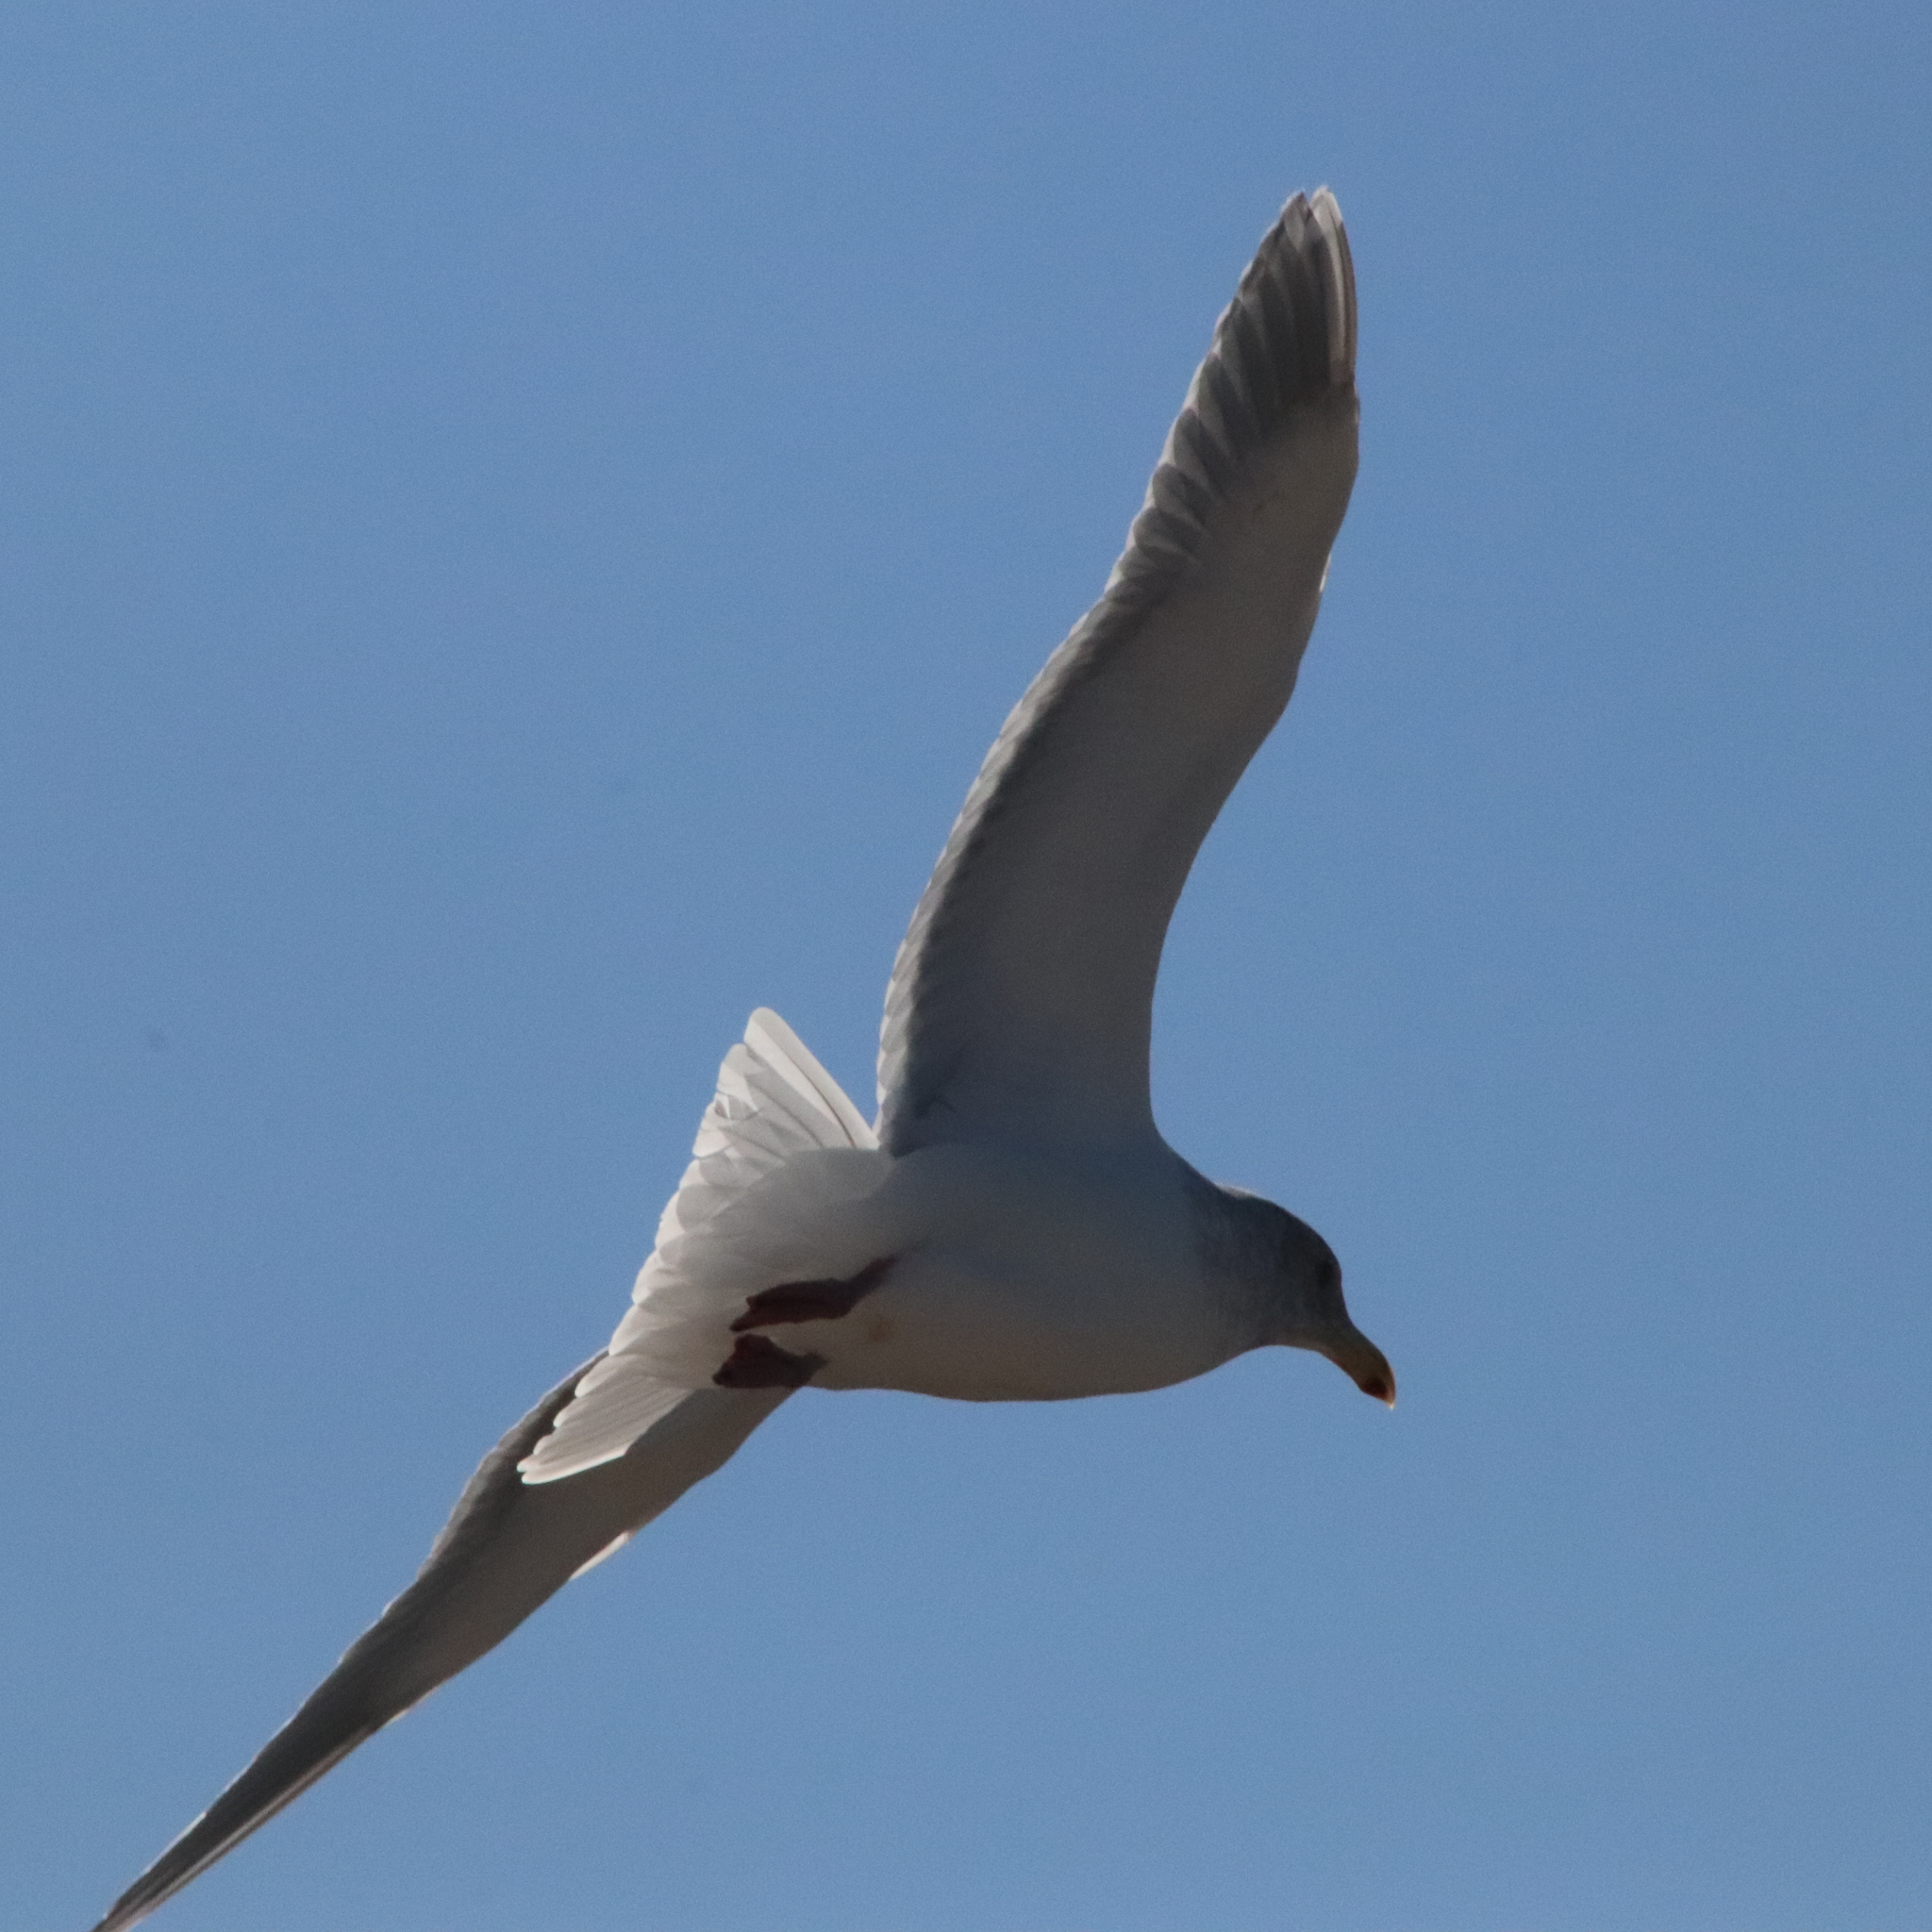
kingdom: Animalia
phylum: Chordata
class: Aves
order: Charadriiformes
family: Laridae
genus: Larus
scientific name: Larus glaucescens
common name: Glaucous-winged gull
